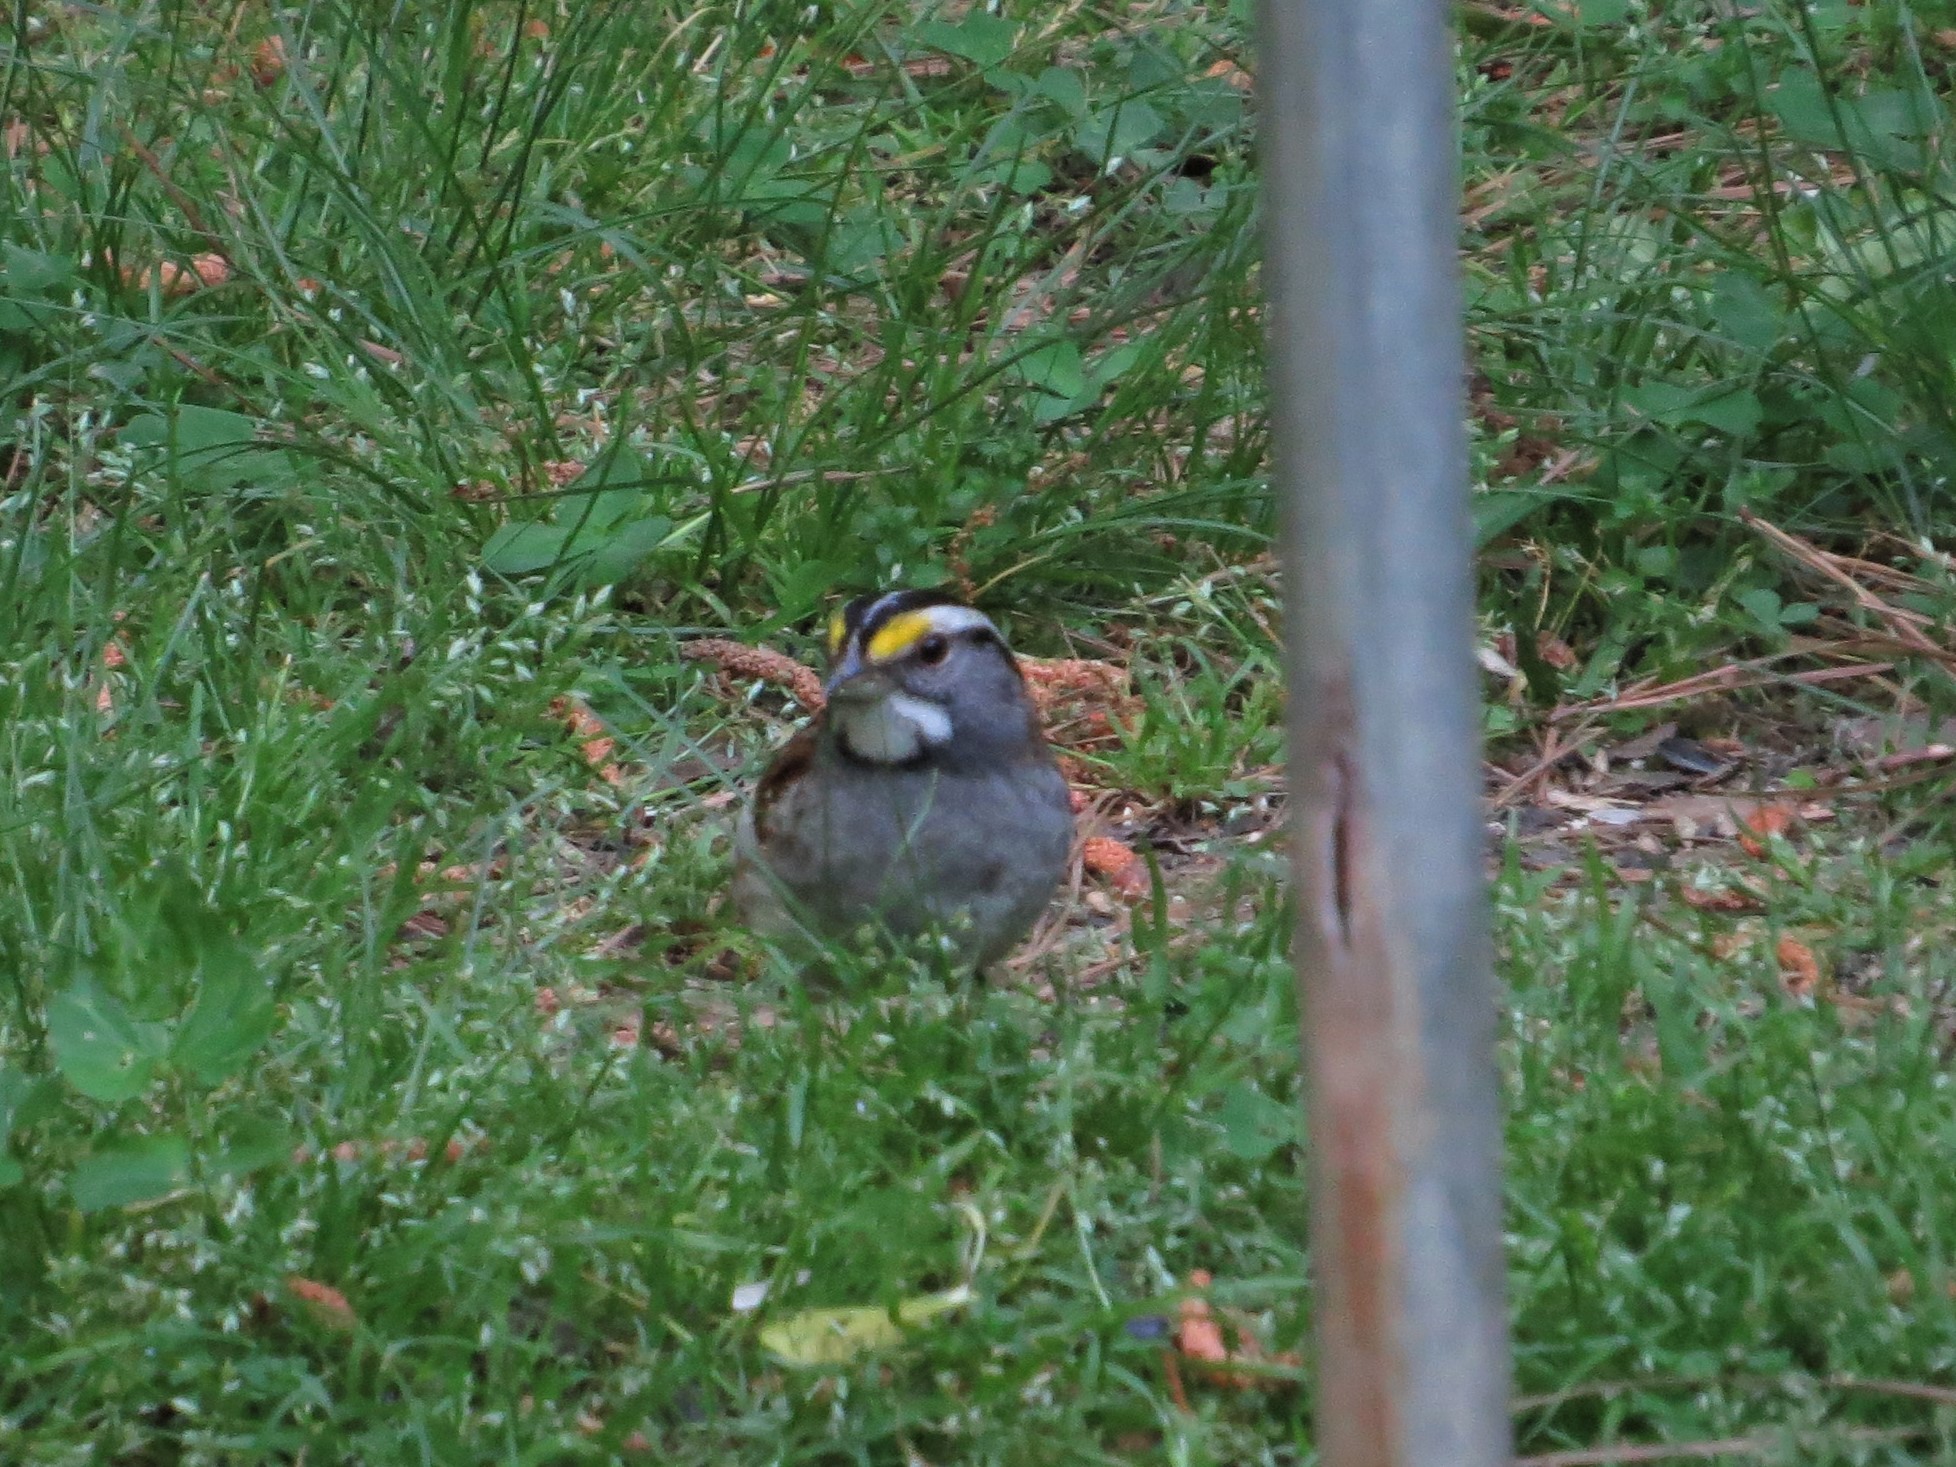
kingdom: Animalia
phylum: Chordata
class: Aves
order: Passeriformes
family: Passerellidae
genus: Zonotrichia
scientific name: Zonotrichia albicollis
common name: White-throated sparrow
